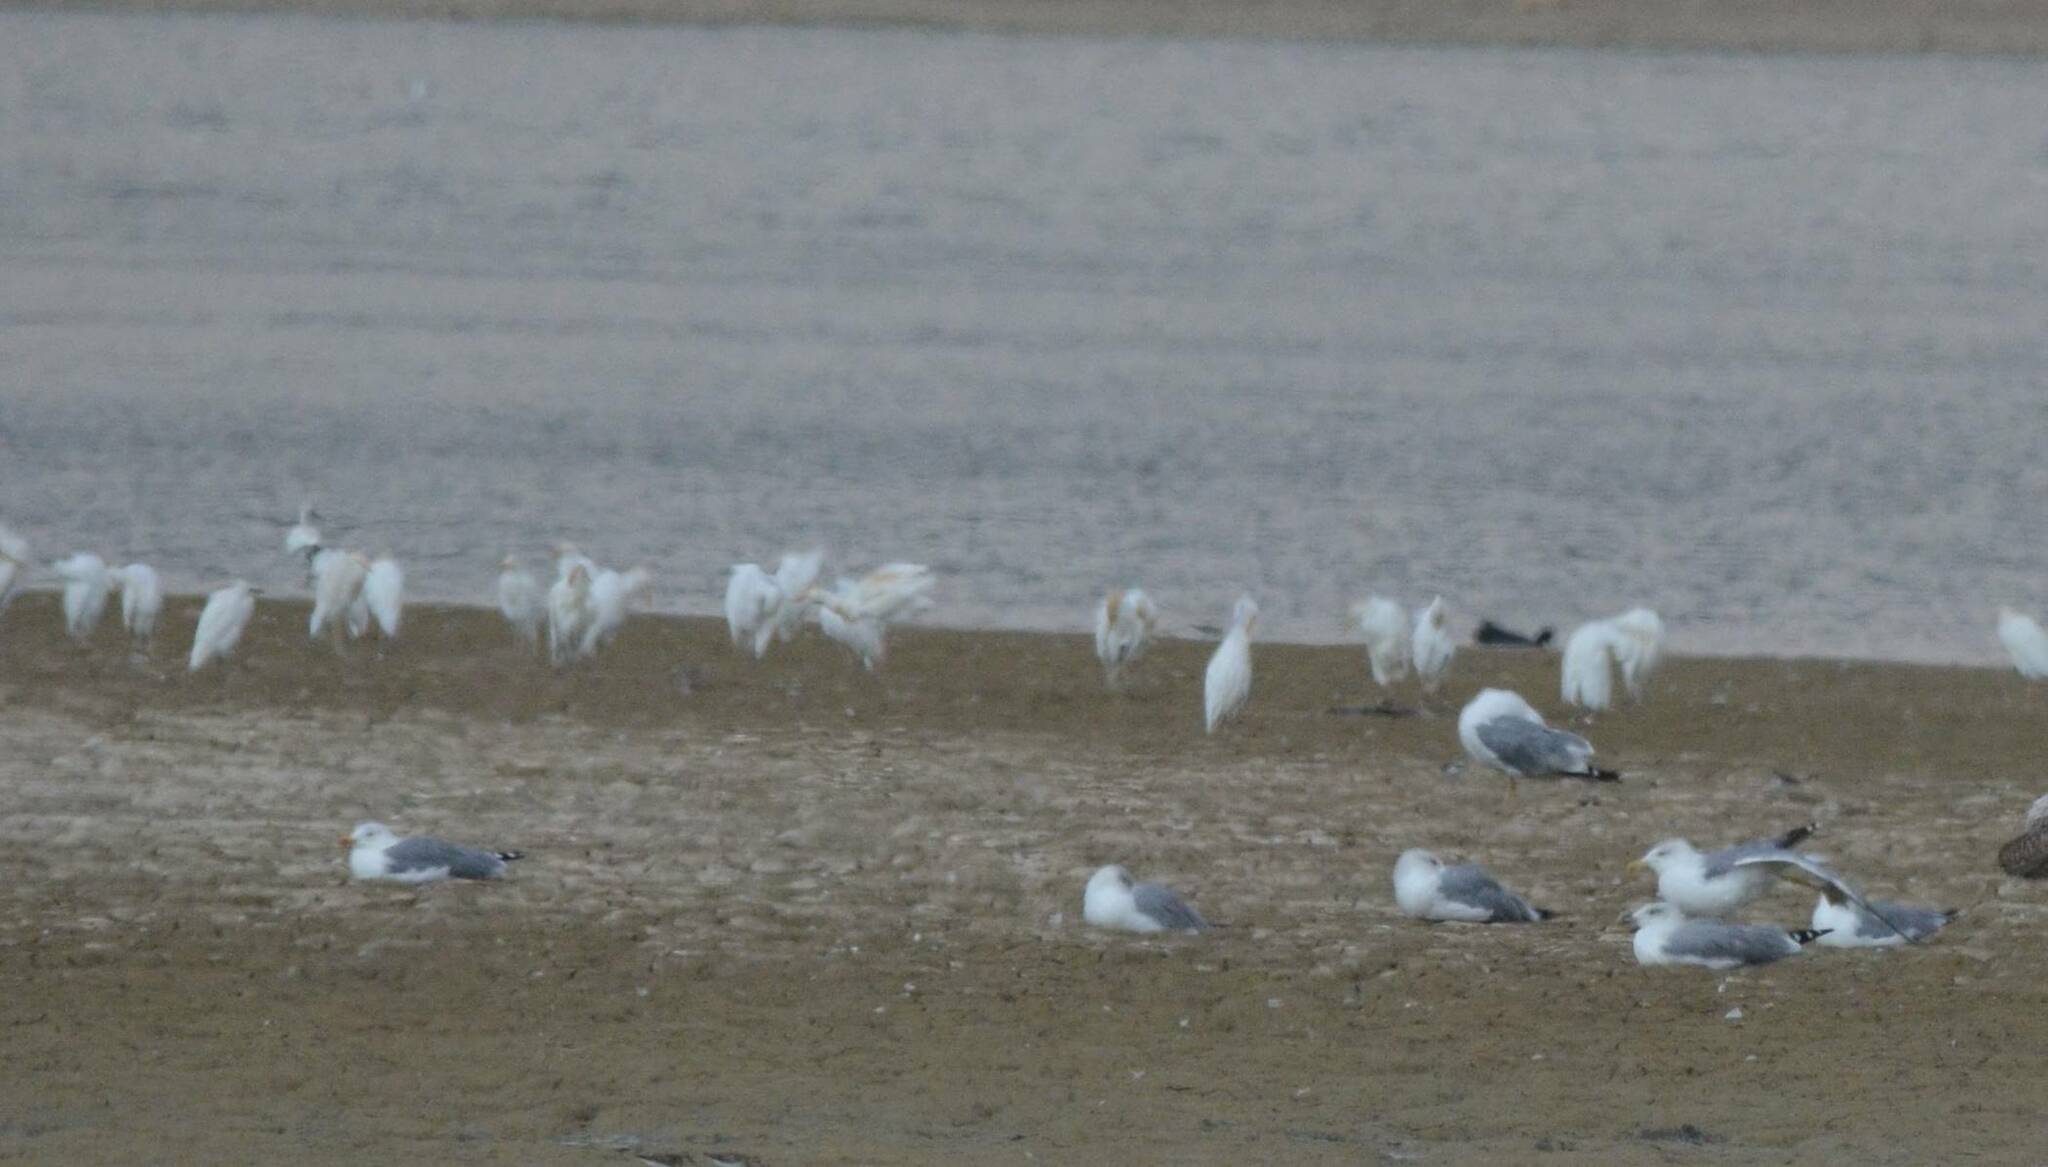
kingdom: Animalia
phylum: Chordata
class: Aves
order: Pelecaniformes
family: Ardeidae
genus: Bubulcus
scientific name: Bubulcus ibis
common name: Cattle egret
